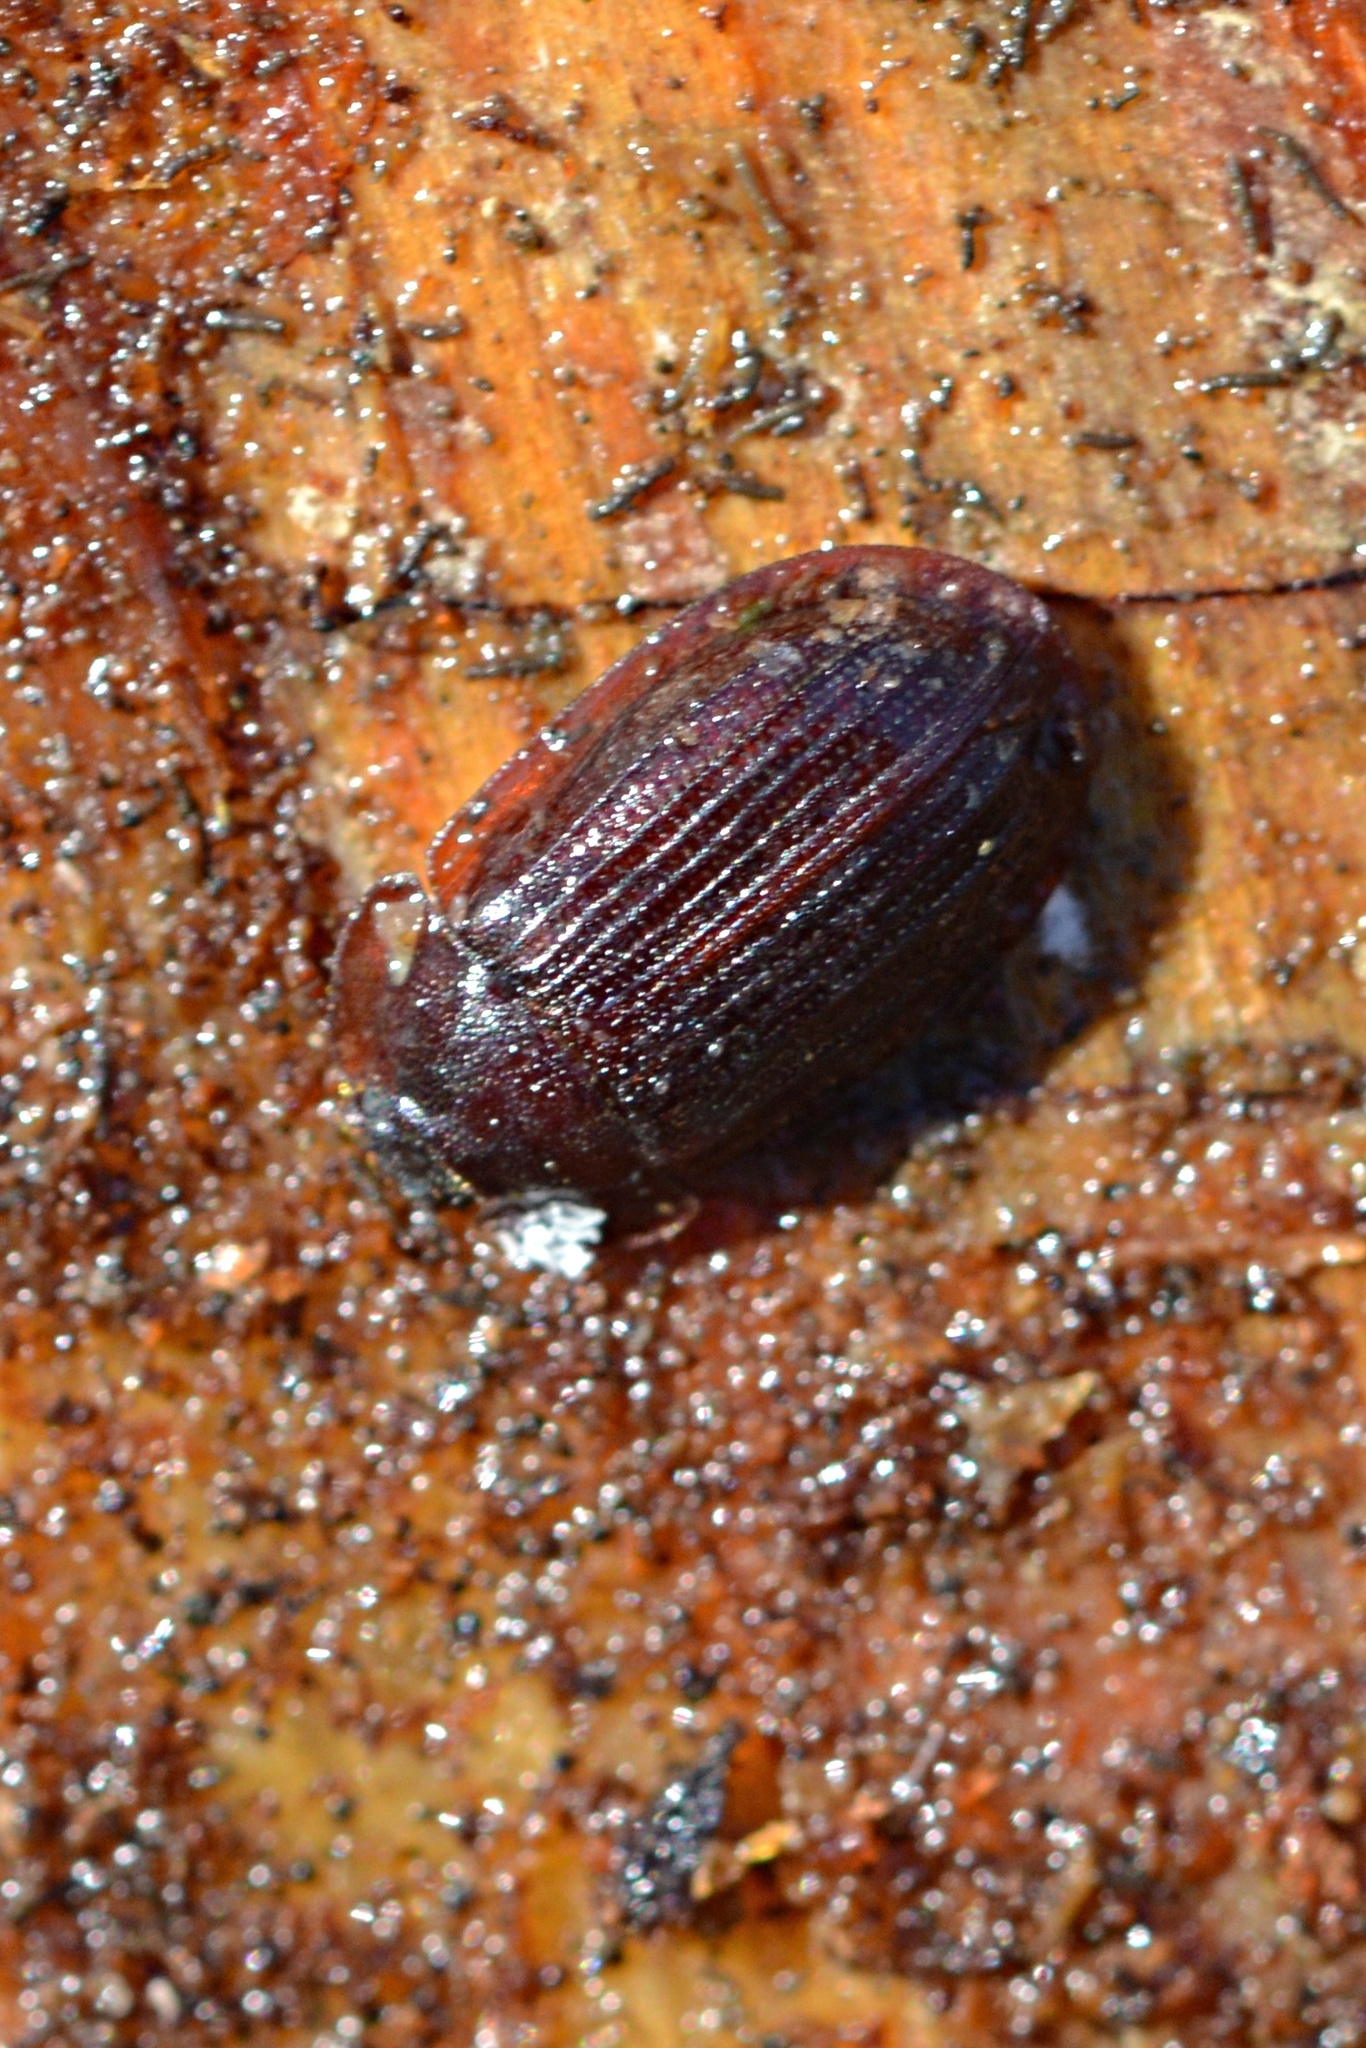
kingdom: Animalia
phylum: Arthropoda
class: Insecta
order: Coleoptera
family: Trogossitidae
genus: Peltis
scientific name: Peltis ferruginea
